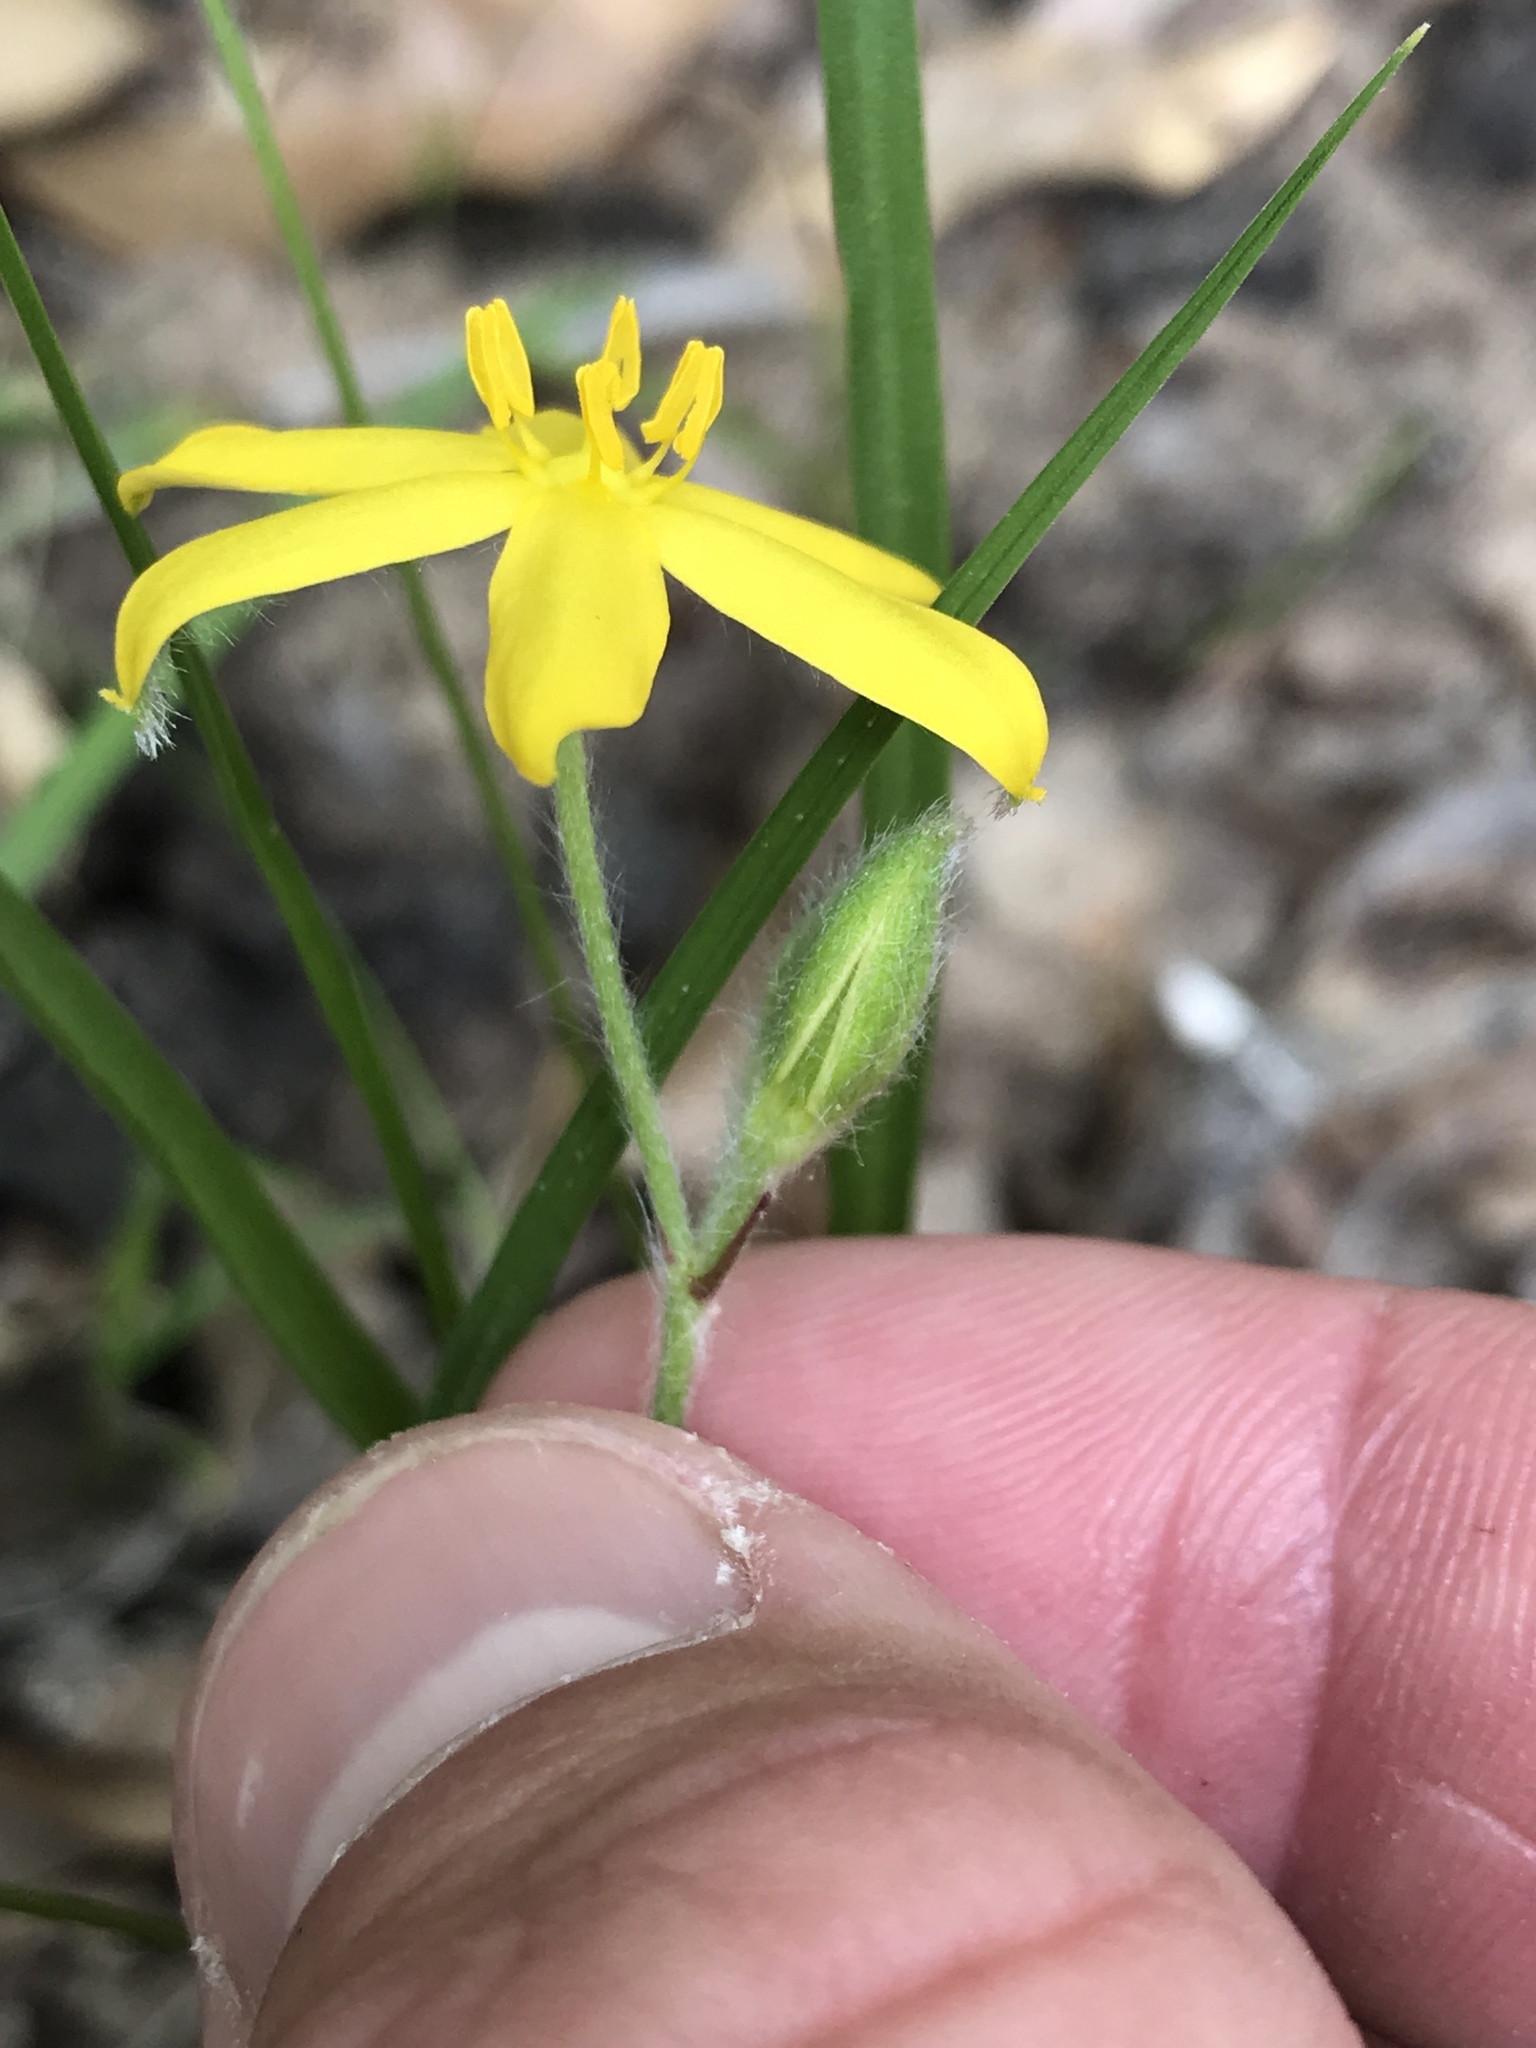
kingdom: Plantae
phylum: Tracheophyta
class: Liliopsida
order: Asparagales
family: Hypoxidaceae
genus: Hypoxis
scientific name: Hypoxis hirsuta
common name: Common goldstar
